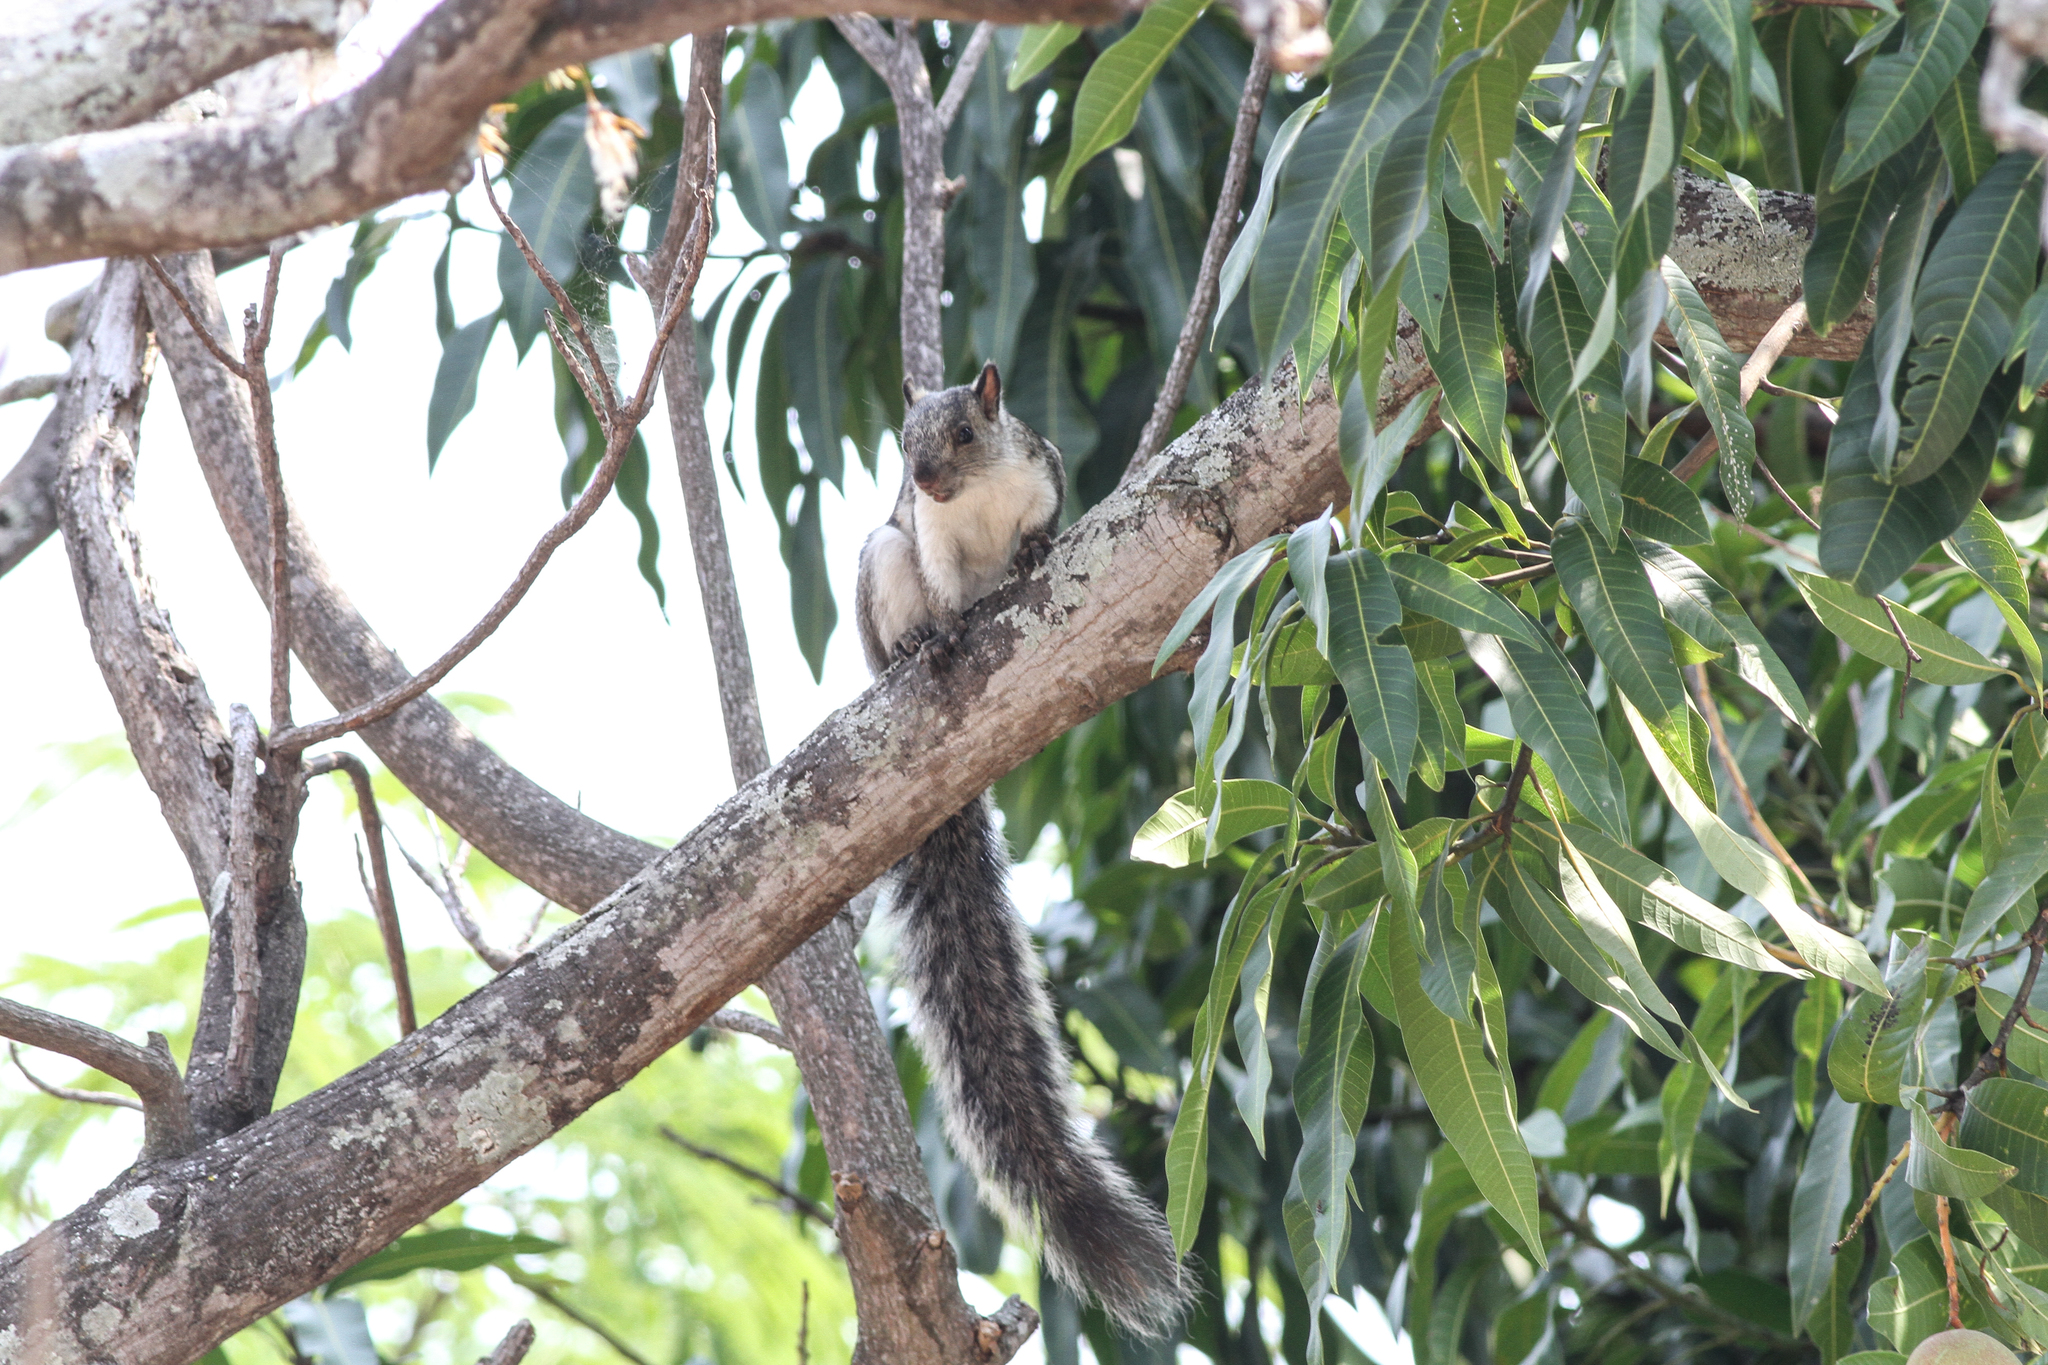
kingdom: Animalia
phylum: Chordata
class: Mammalia
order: Rodentia
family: Sciuridae
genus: Sciurus
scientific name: Sciurus variegatoides
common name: Variegated squirrel
